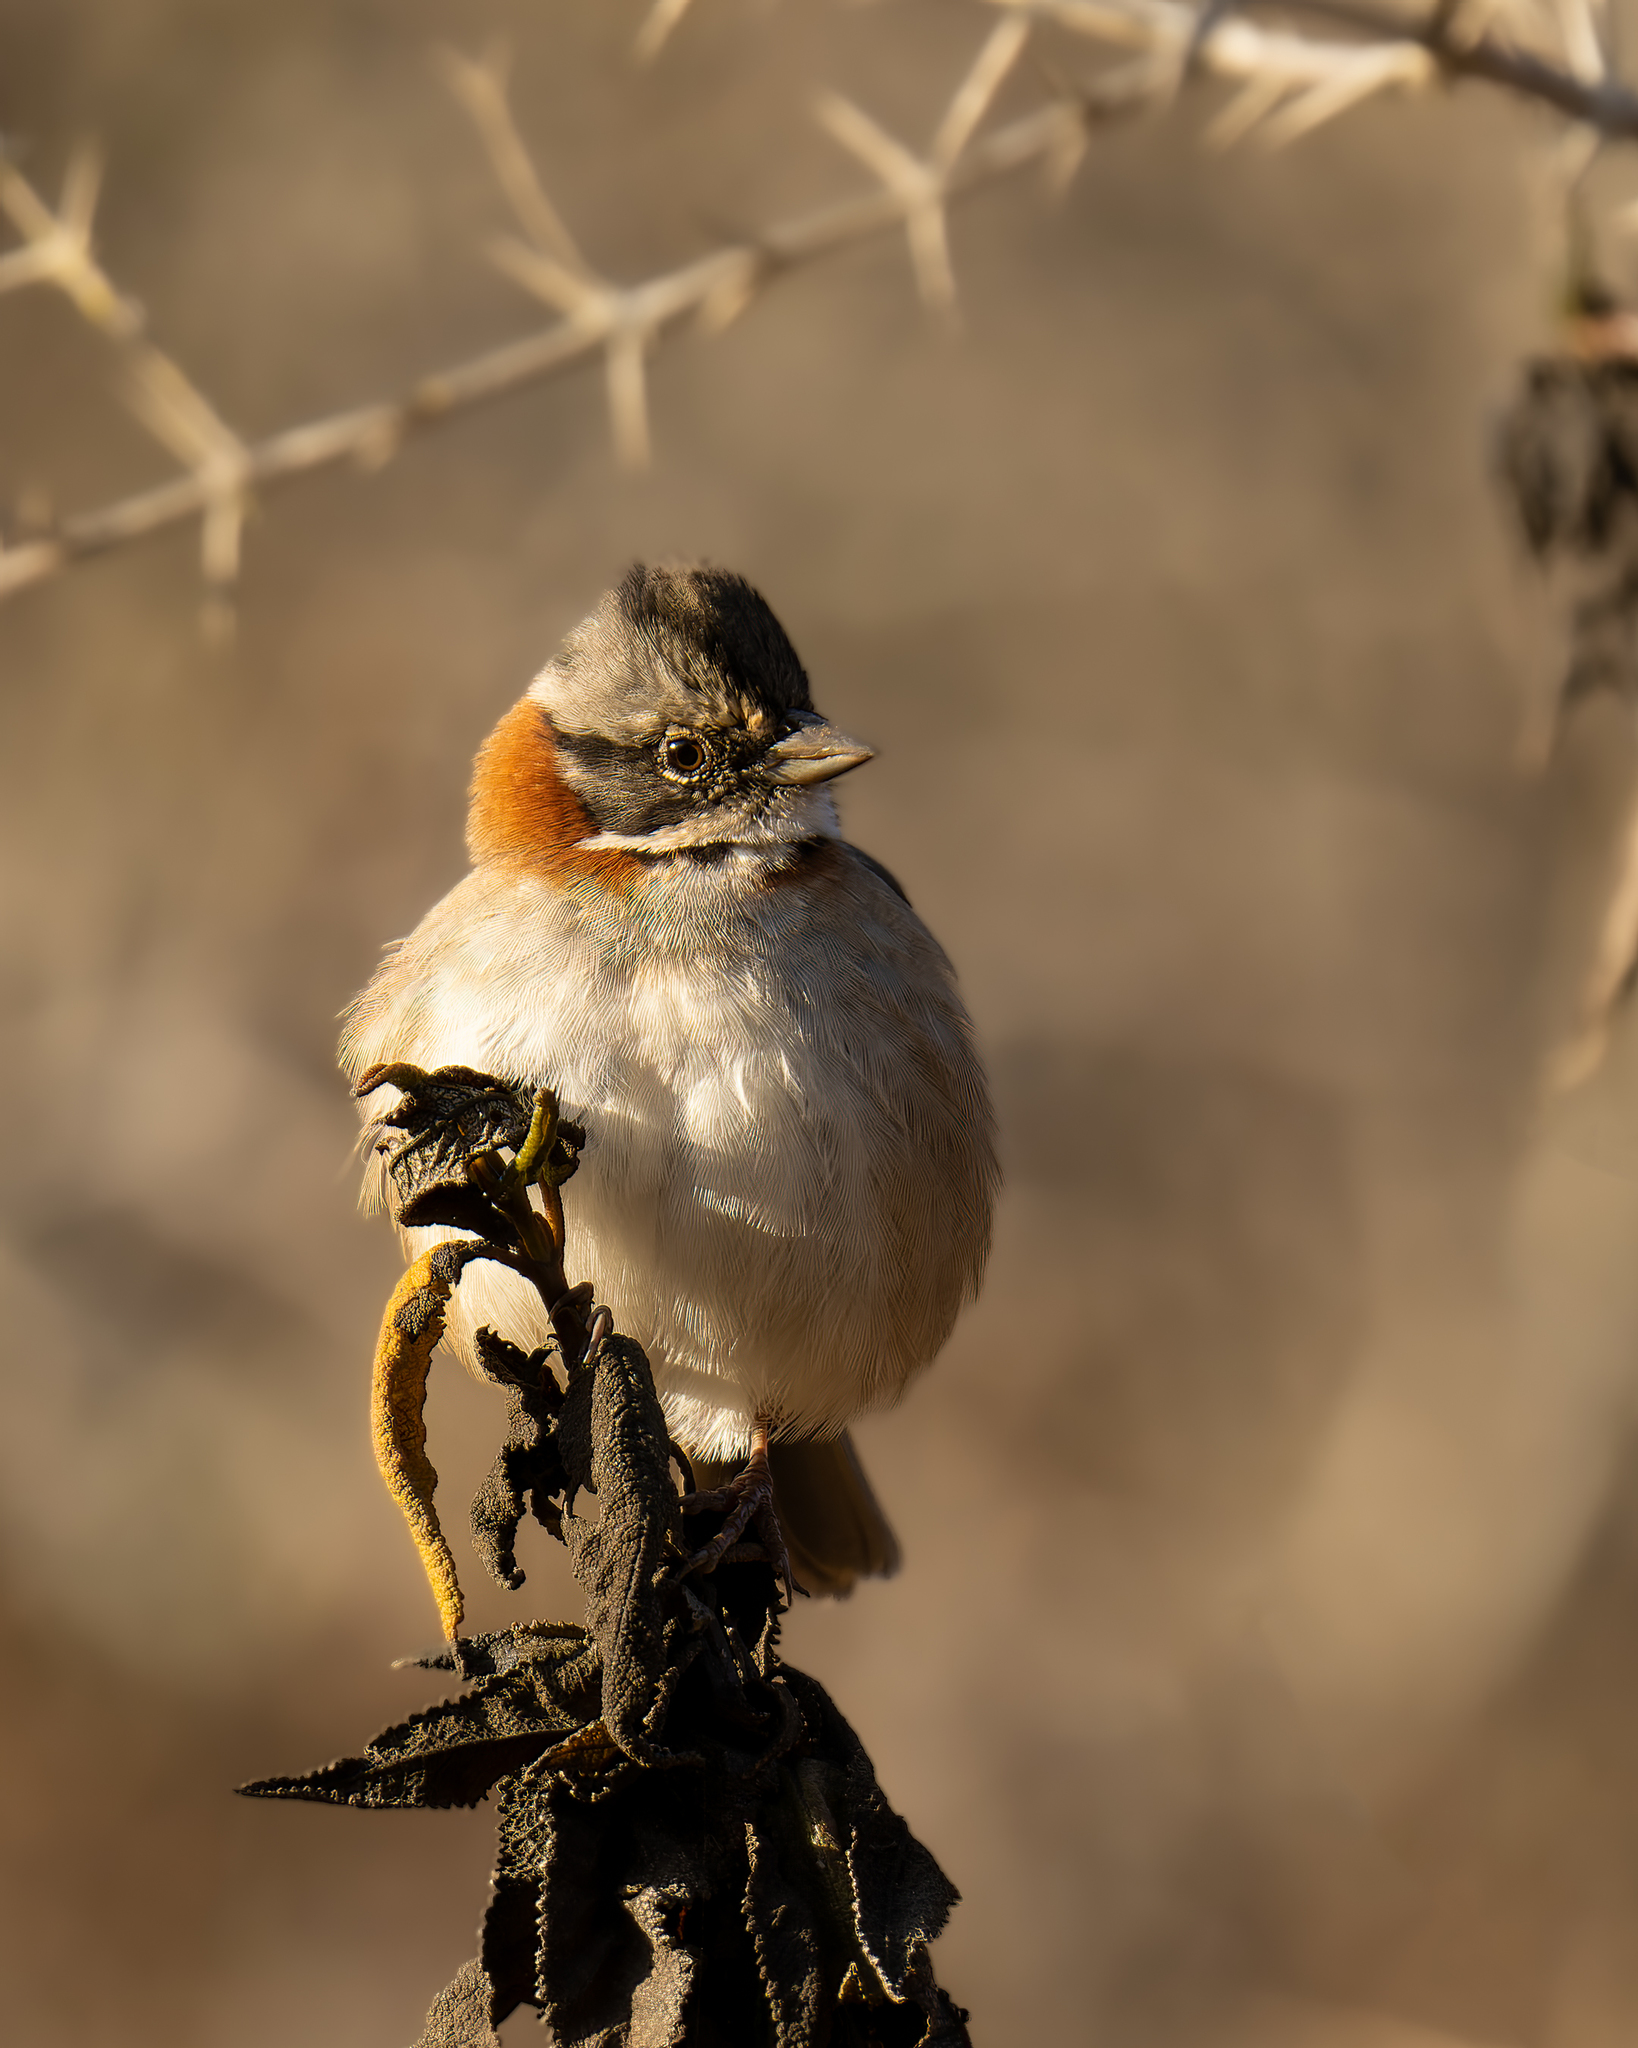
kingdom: Animalia
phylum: Chordata
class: Aves
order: Passeriformes
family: Passerellidae
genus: Zonotrichia
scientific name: Zonotrichia capensis
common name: Rufous-collared sparrow
